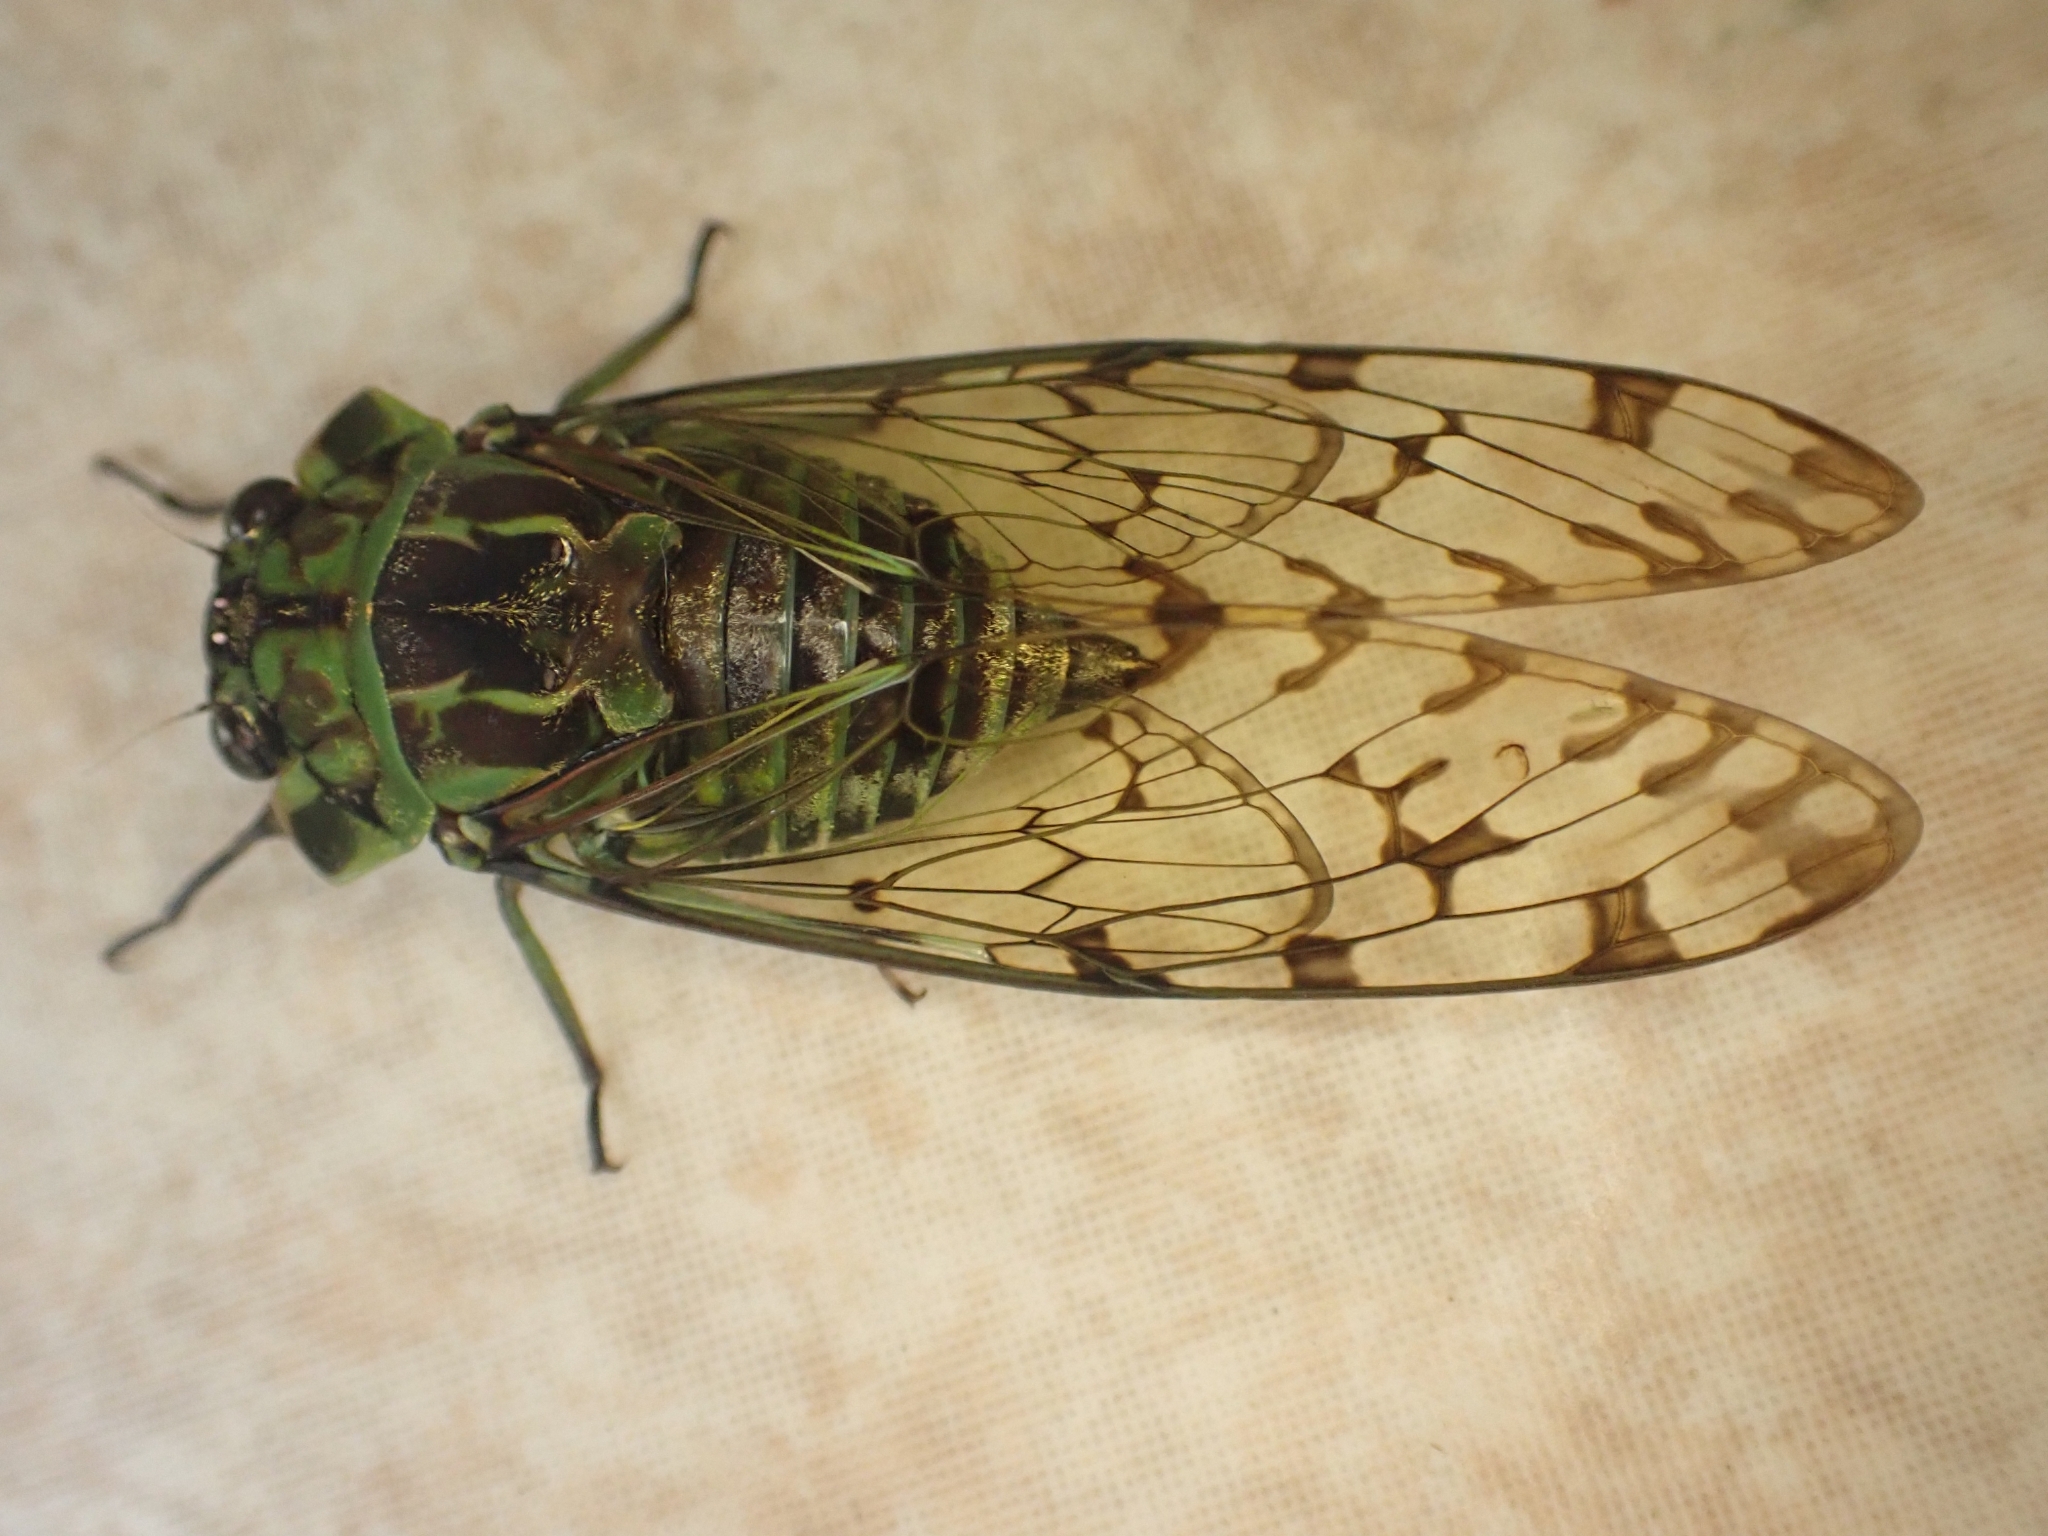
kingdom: Animalia
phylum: Arthropoda
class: Insecta
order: Hemiptera
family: Cicadidae
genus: Zammara
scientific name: Zammara nigriplaga
